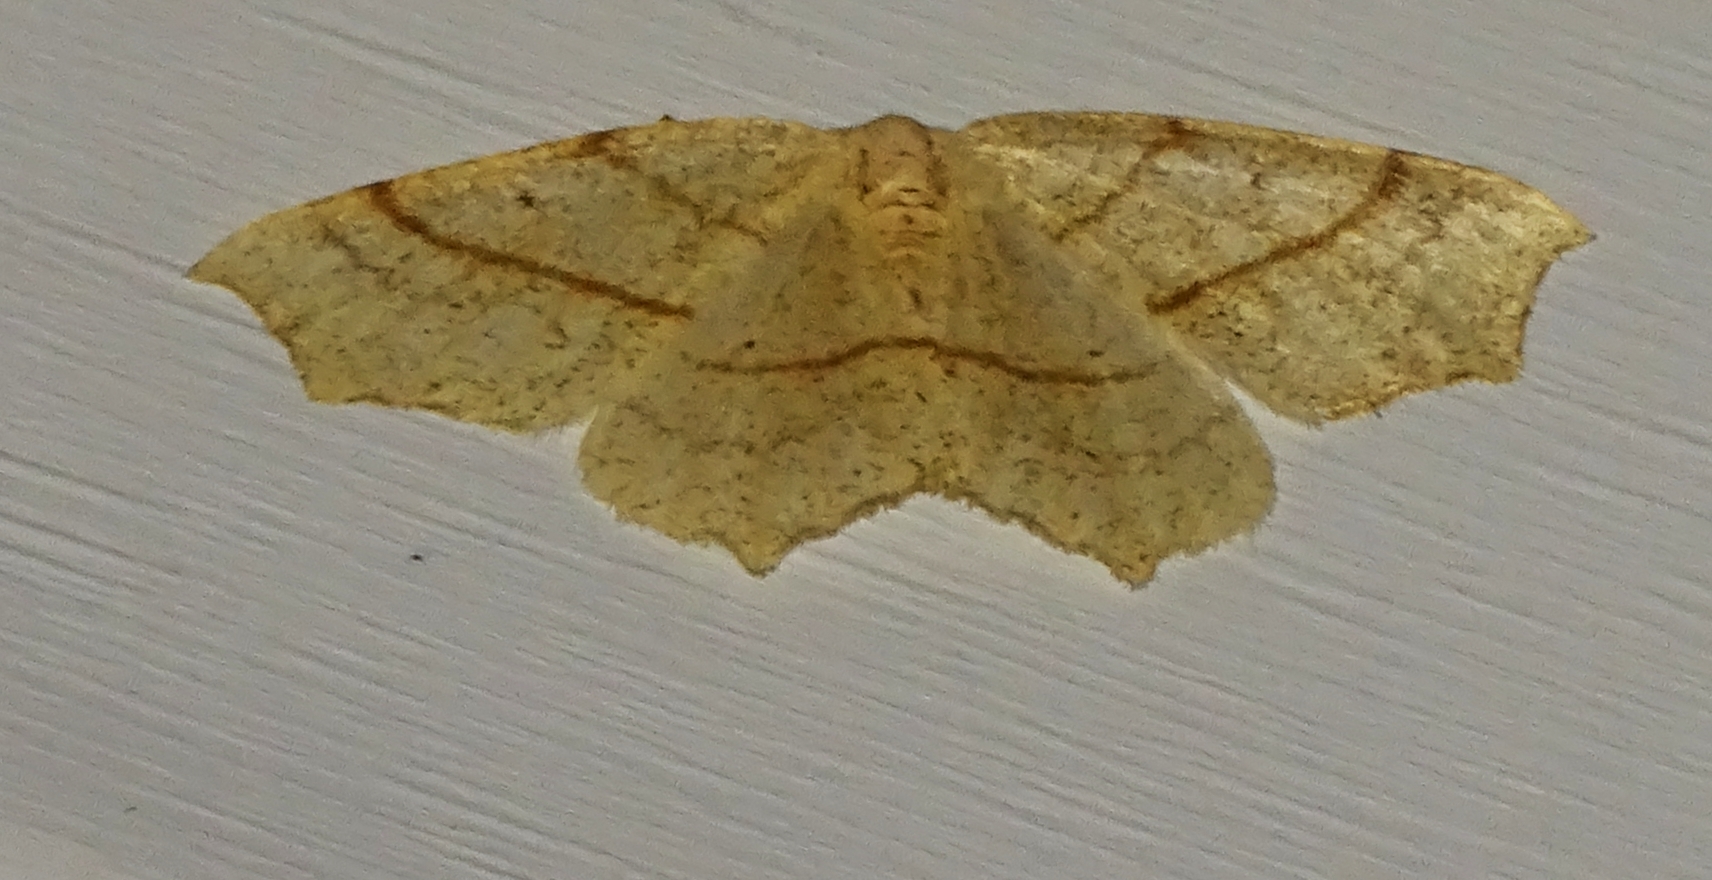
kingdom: Animalia
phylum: Arthropoda
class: Insecta
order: Lepidoptera
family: Geometridae
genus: Besma
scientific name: Besma quercivoraria
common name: Oak besma
